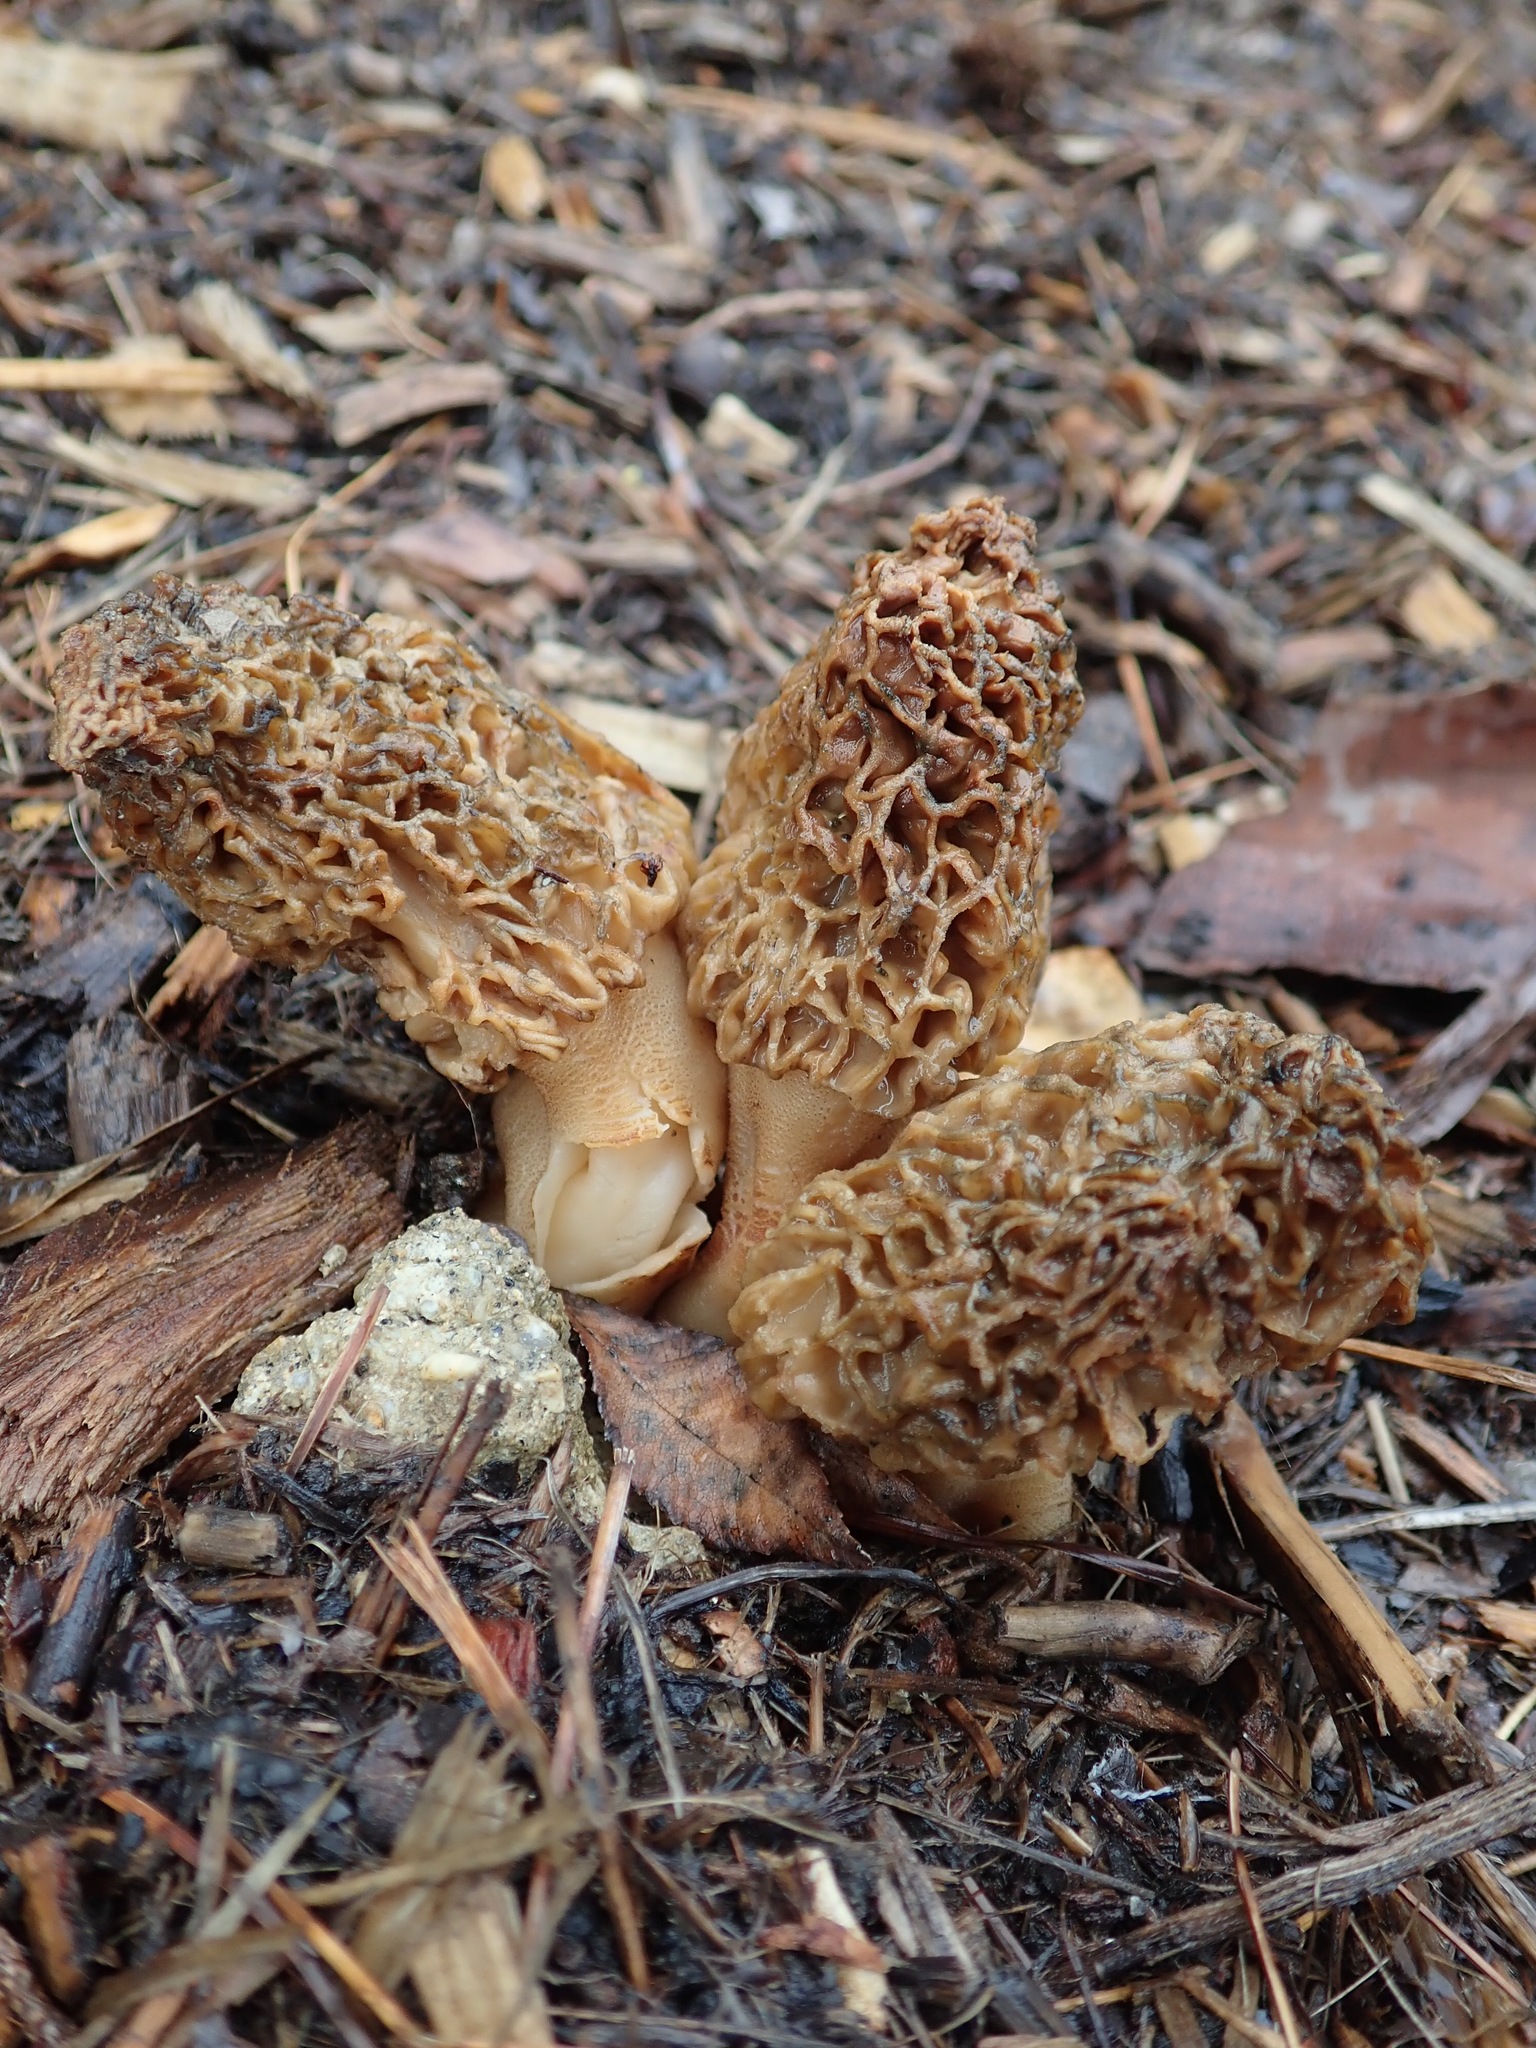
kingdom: Fungi
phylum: Ascomycota
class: Pezizomycetes
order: Pezizales
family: Morchellaceae
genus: Morchella
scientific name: Morchella rufobrunnea
